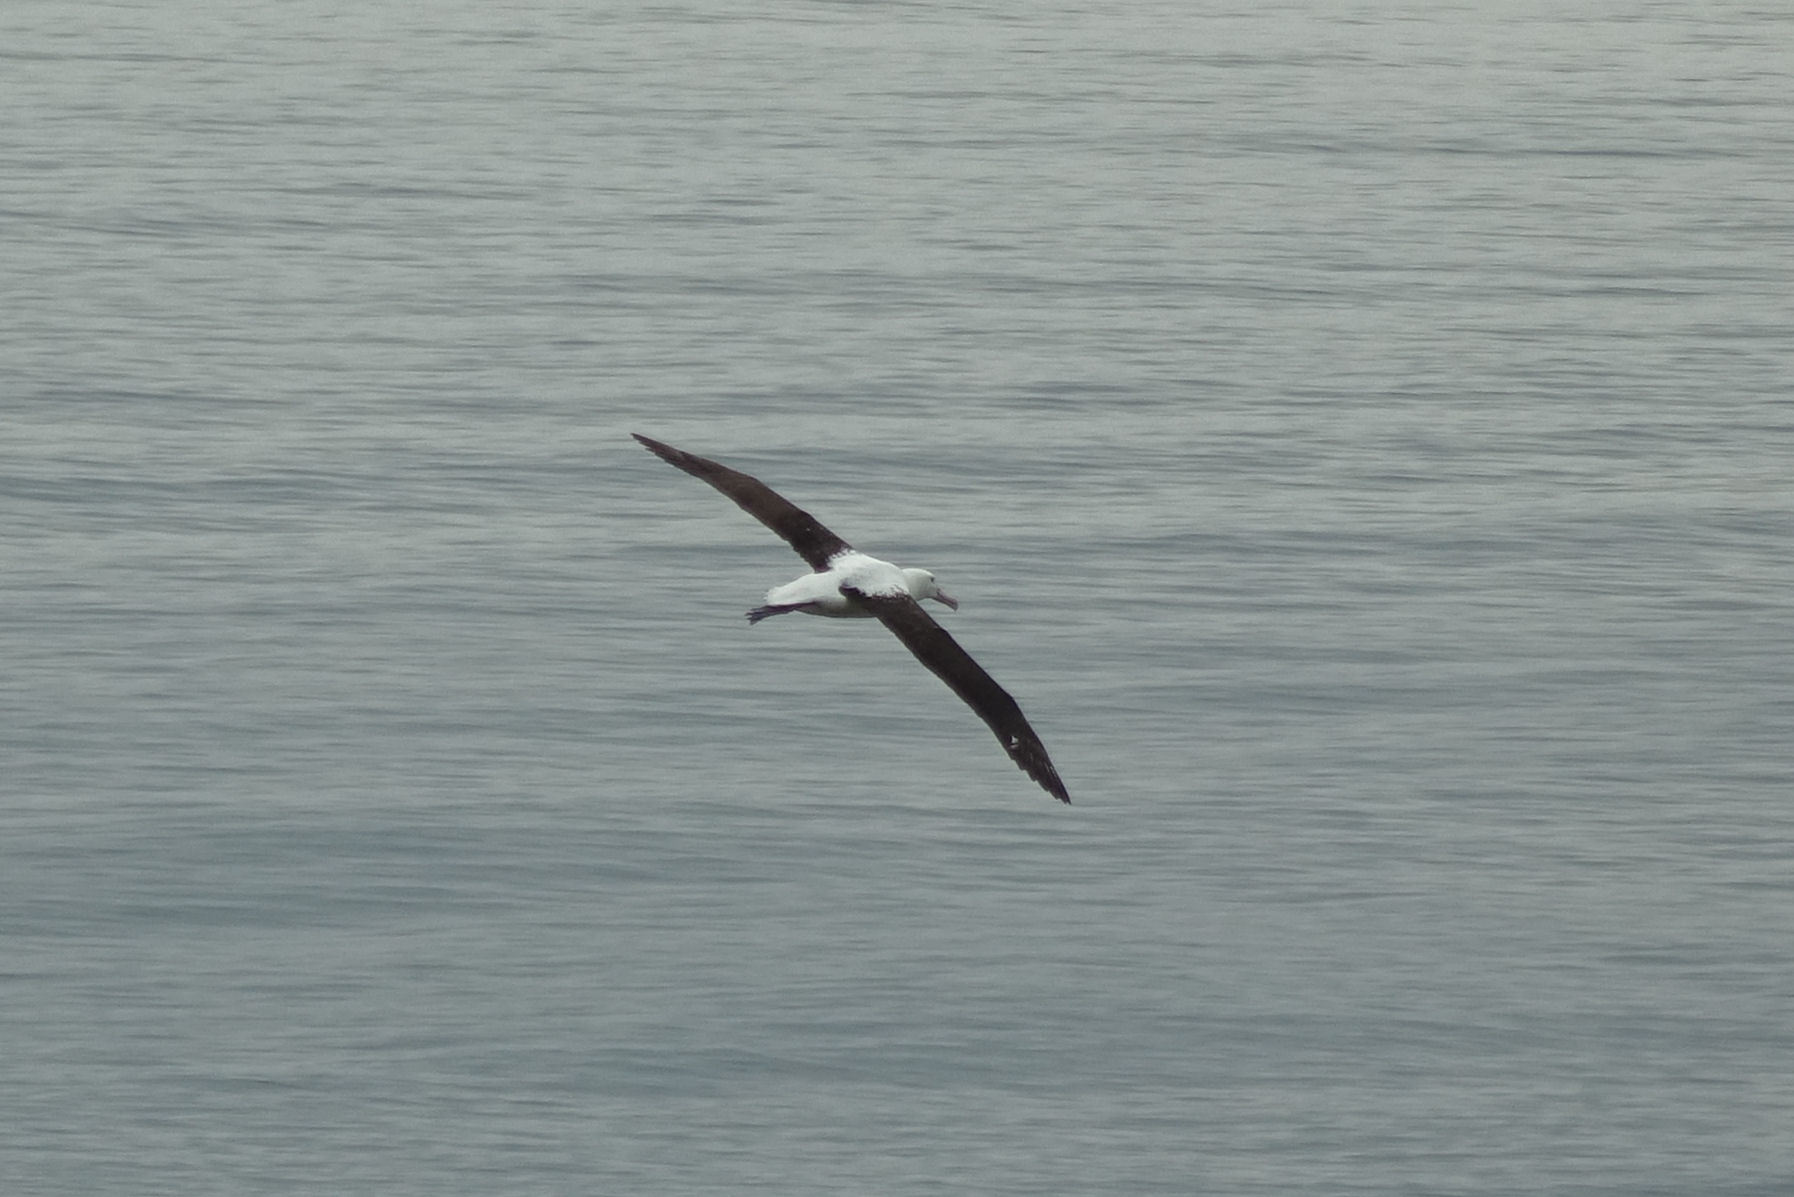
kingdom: Animalia
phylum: Chordata
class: Aves
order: Procellariiformes
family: Diomedeidae
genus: Diomedea
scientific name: Diomedea sanfordi
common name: Northern royal albatross
